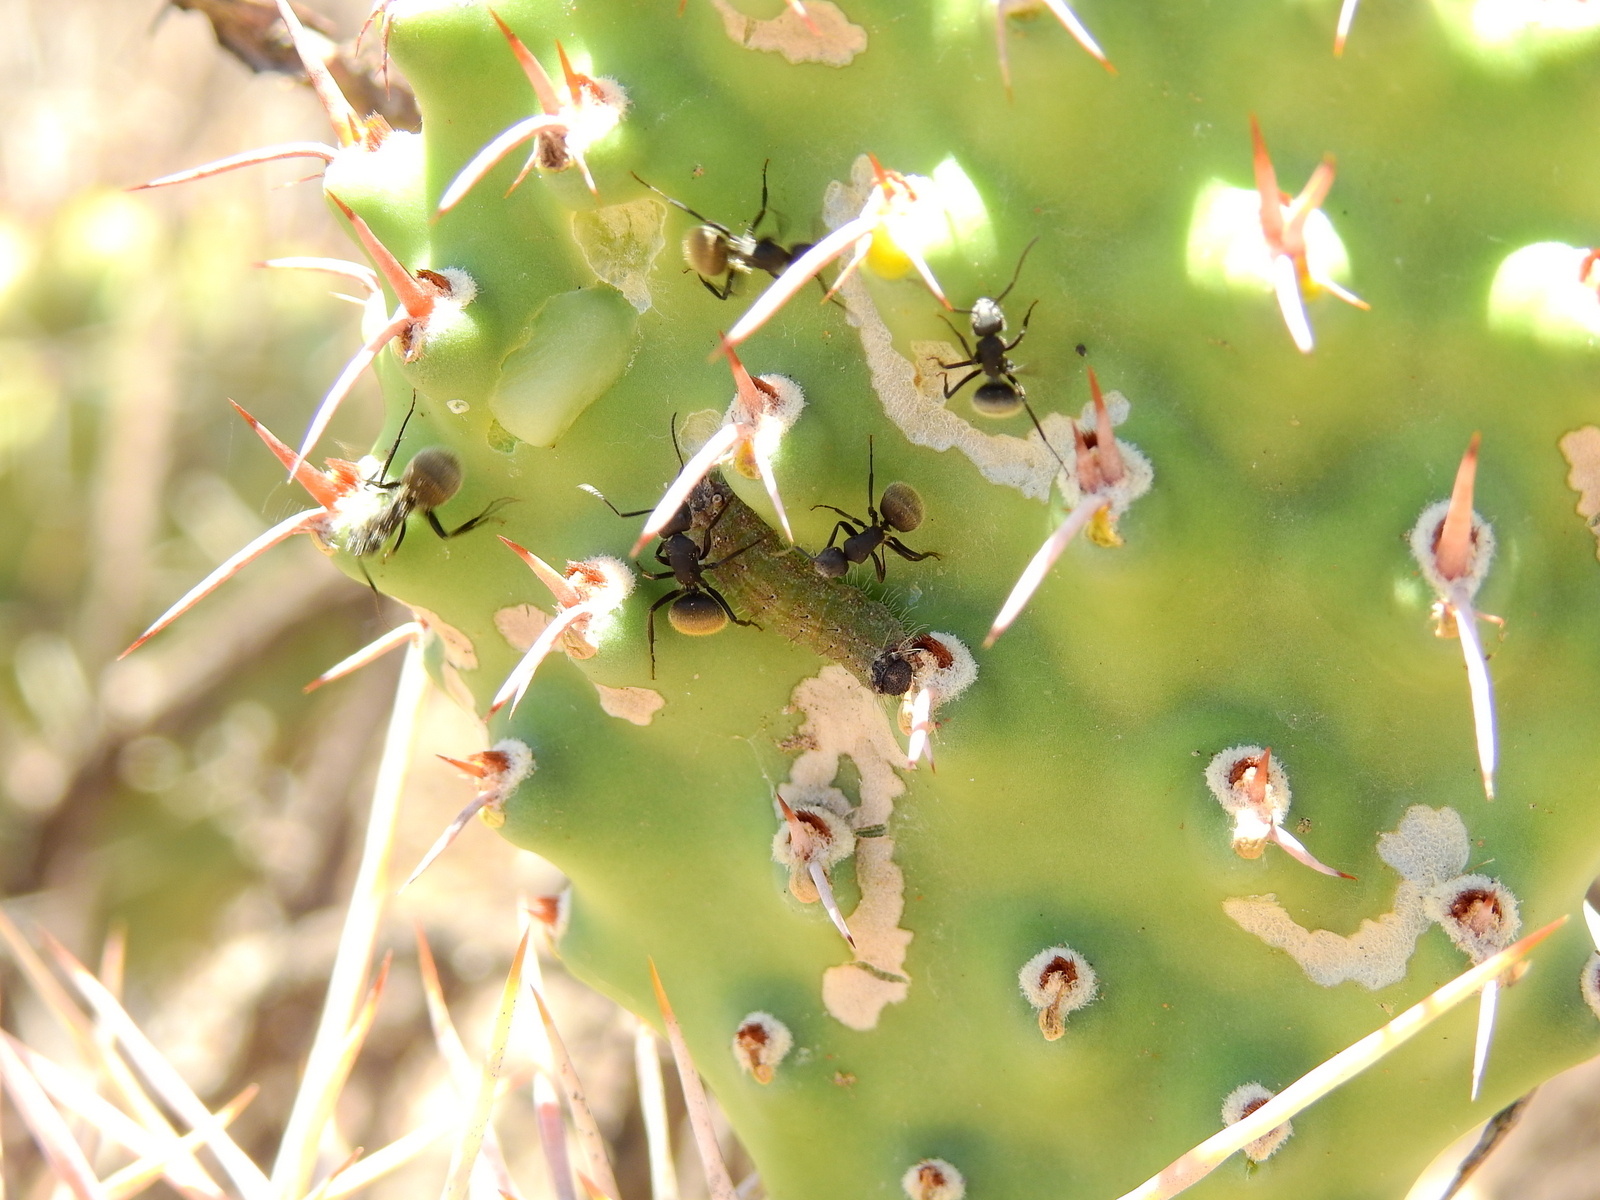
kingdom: Animalia
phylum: Arthropoda
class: Insecta
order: Hymenoptera
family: Formicidae
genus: Camponotus
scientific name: Camponotus mus
